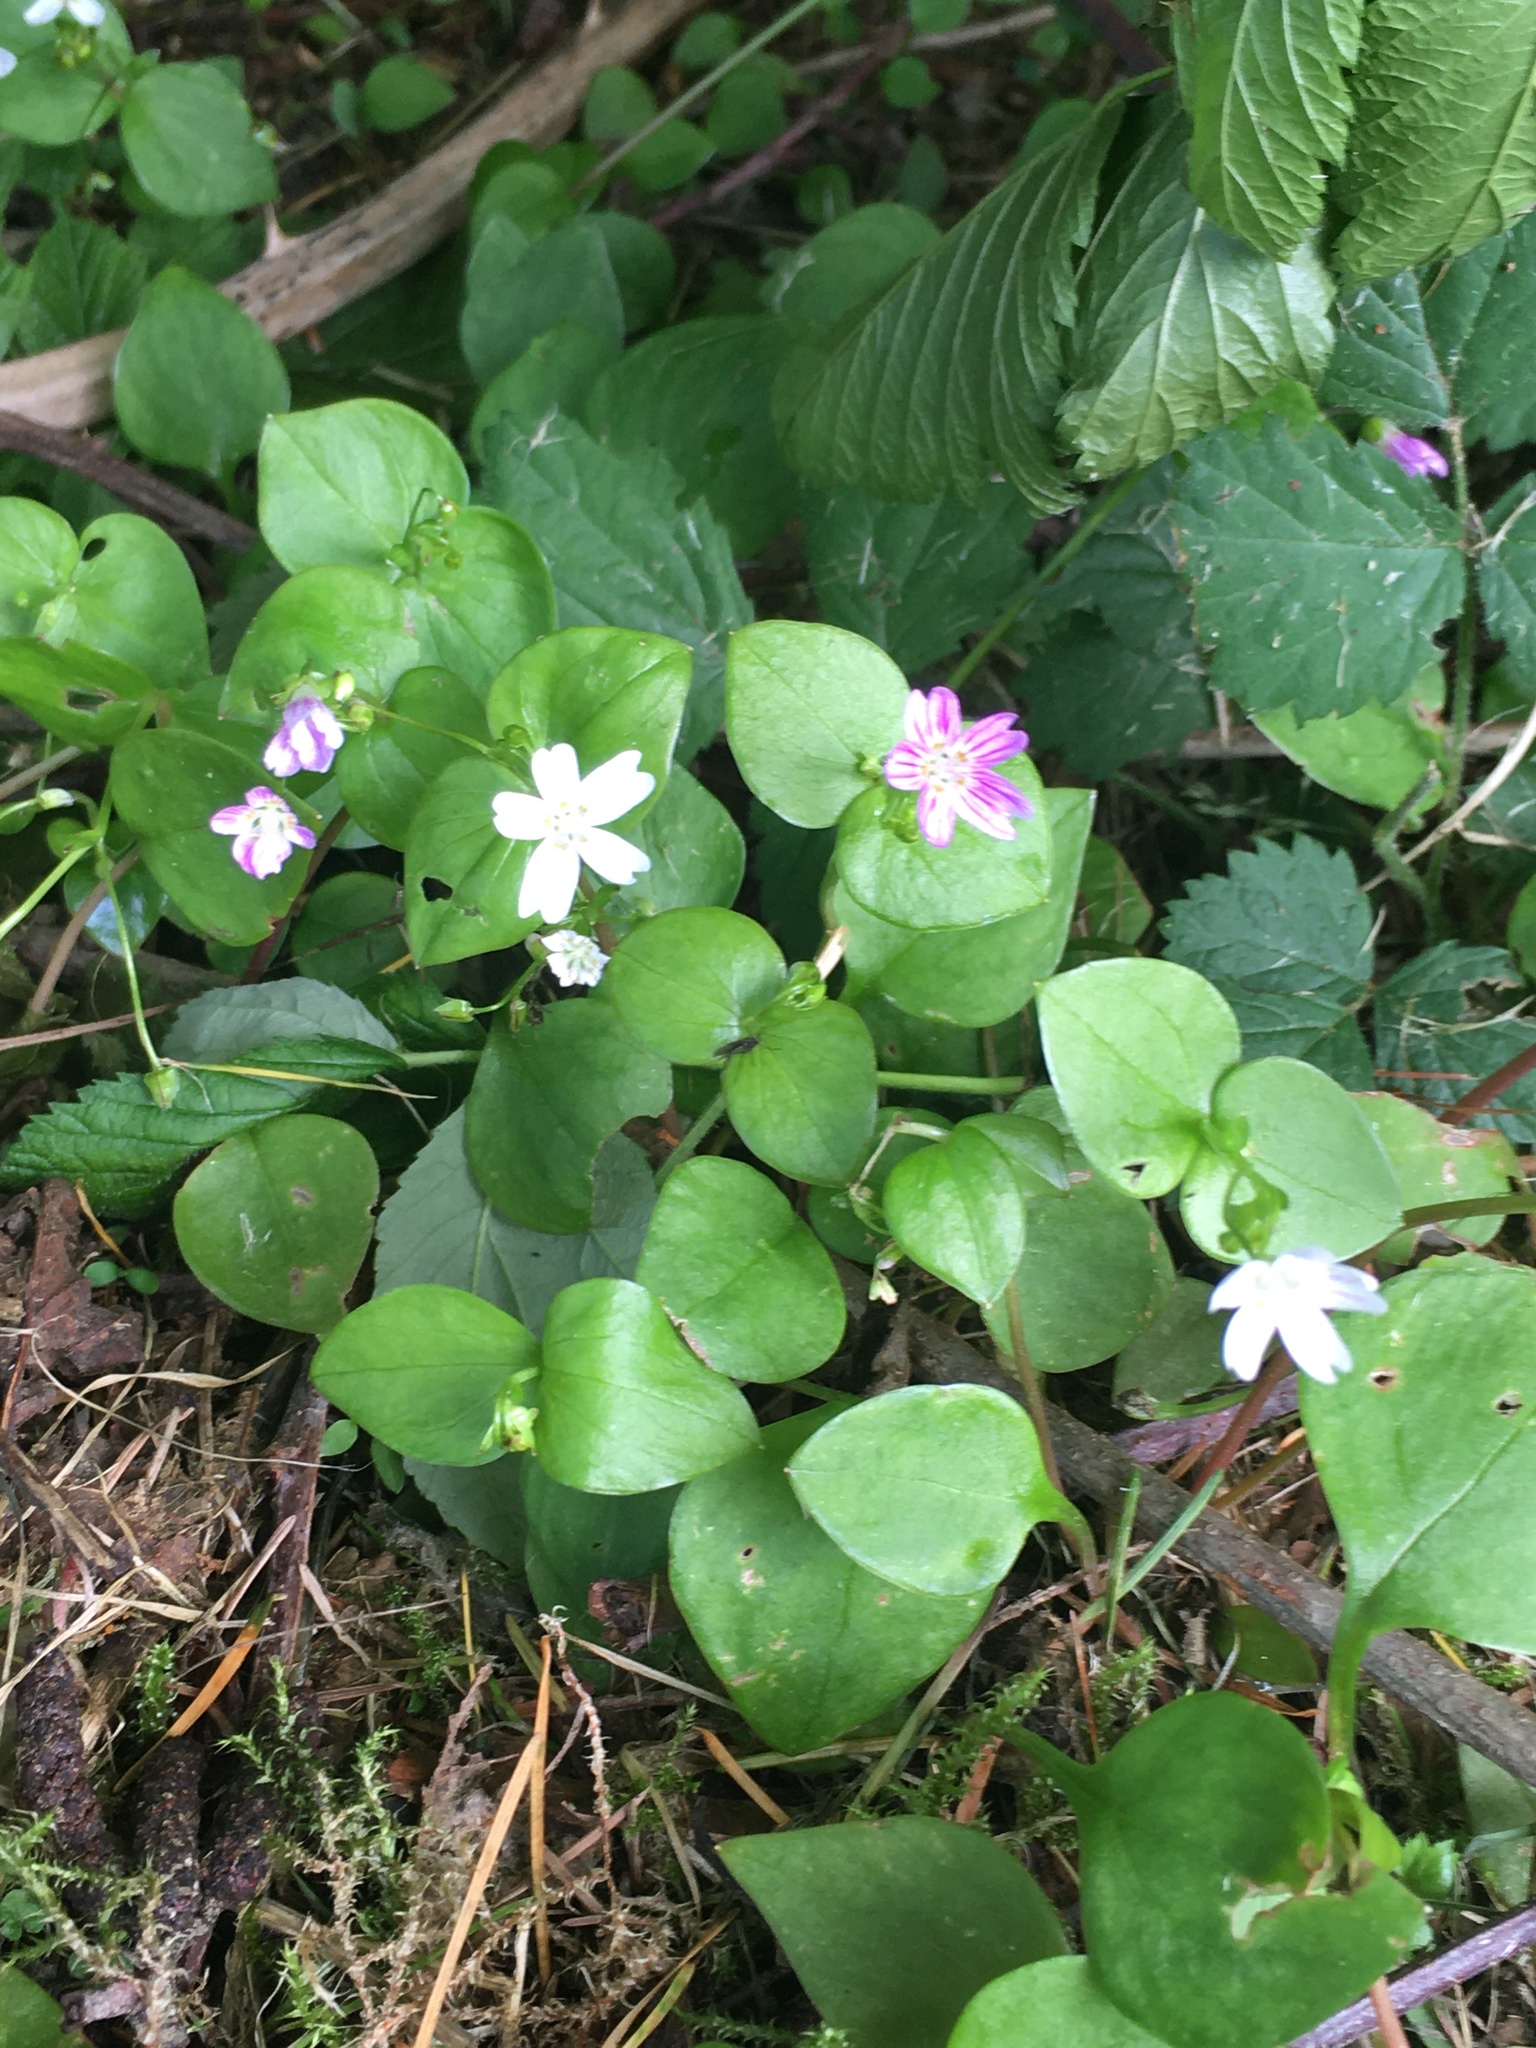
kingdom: Plantae
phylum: Tracheophyta
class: Magnoliopsida
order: Caryophyllales
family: Montiaceae
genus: Claytonia
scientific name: Claytonia sibirica
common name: Pink purslane
